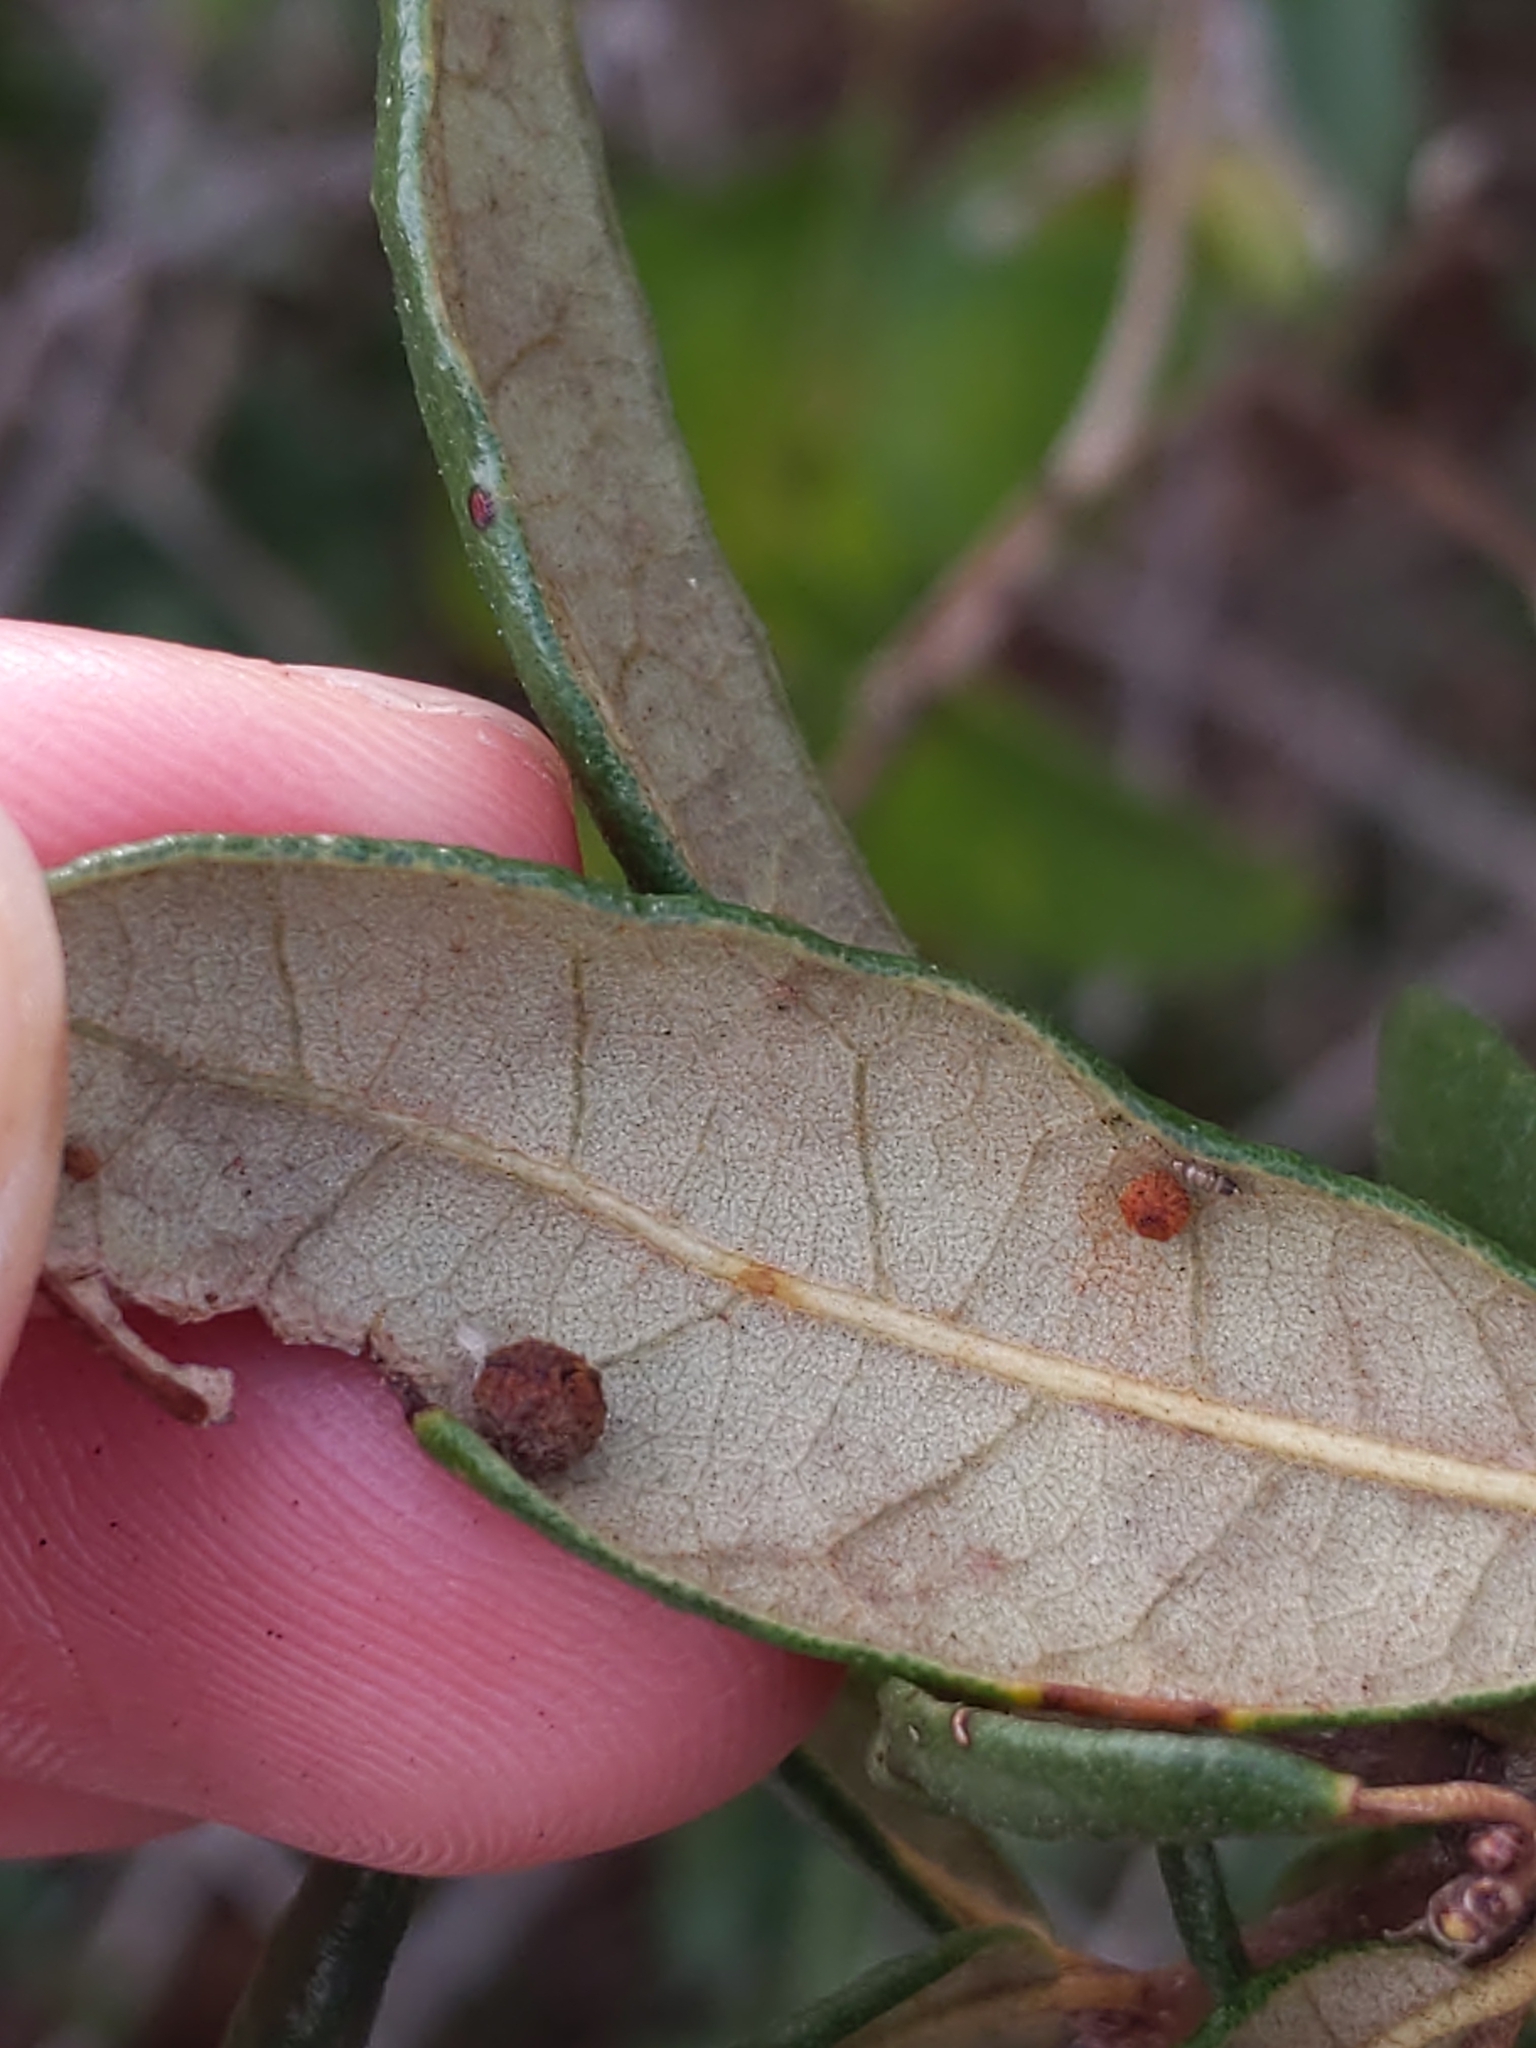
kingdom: Animalia
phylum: Arthropoda
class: Insecta
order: Hymenoptera
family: Cynipidae
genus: Belonocnema
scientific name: Belonocnema fossoria
